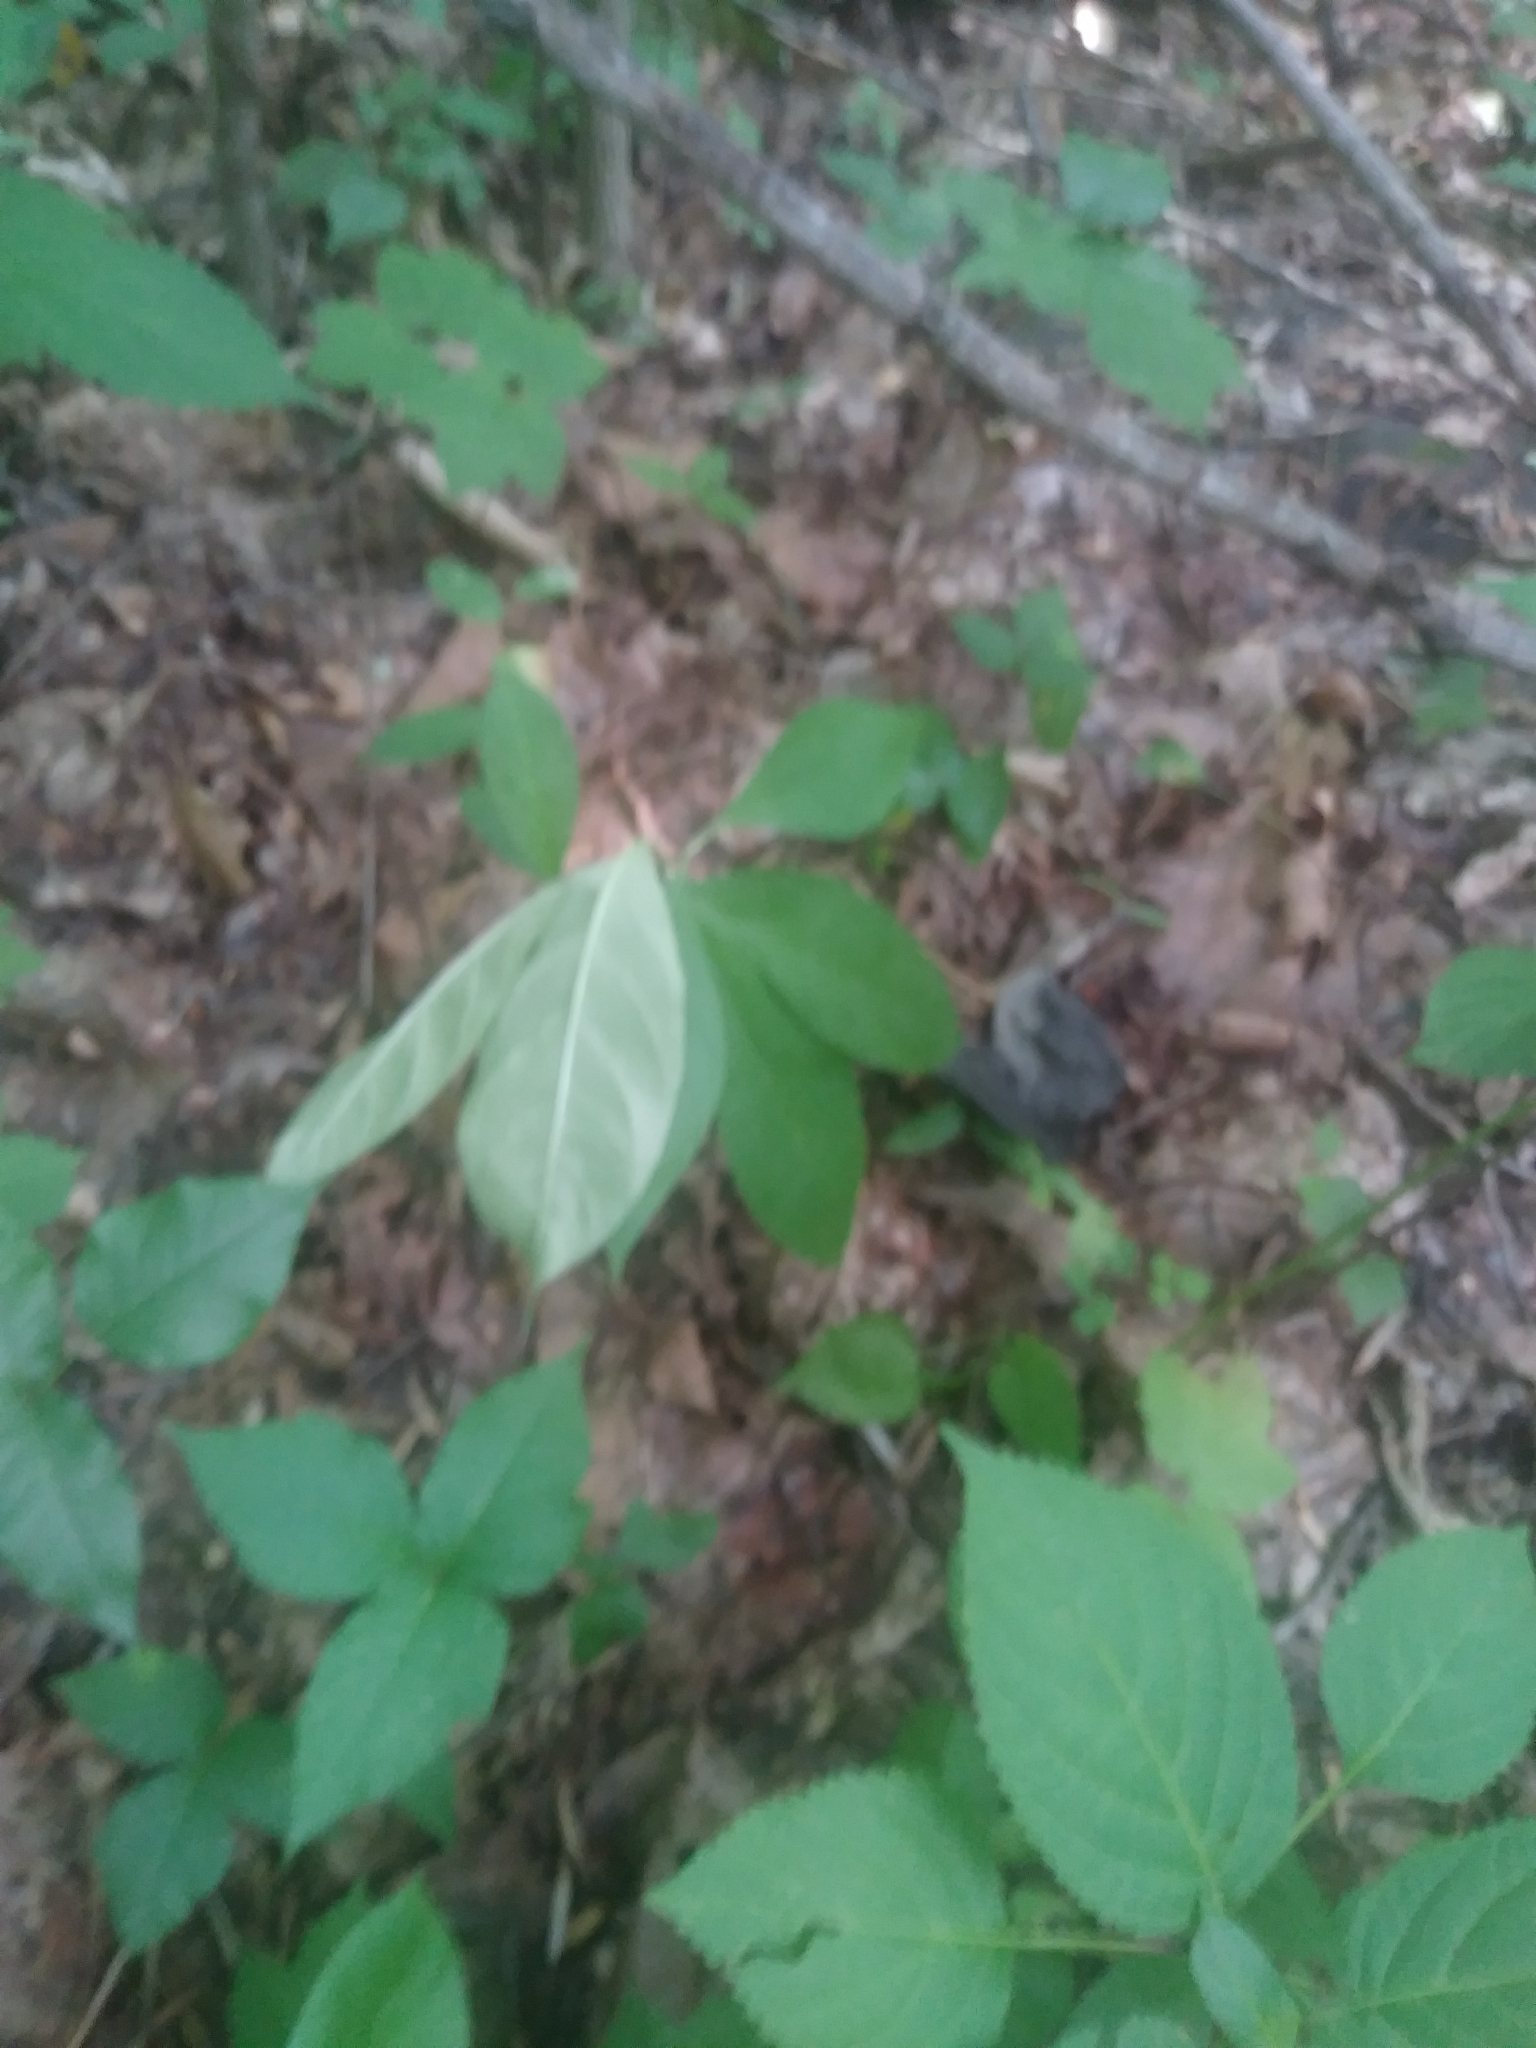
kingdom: Plantae
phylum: Tracheophyta
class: Magnoliopsida
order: Gentianales
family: Apocynaceae
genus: Asclepias
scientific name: Asclepias exaltata
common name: Poke milkweed
